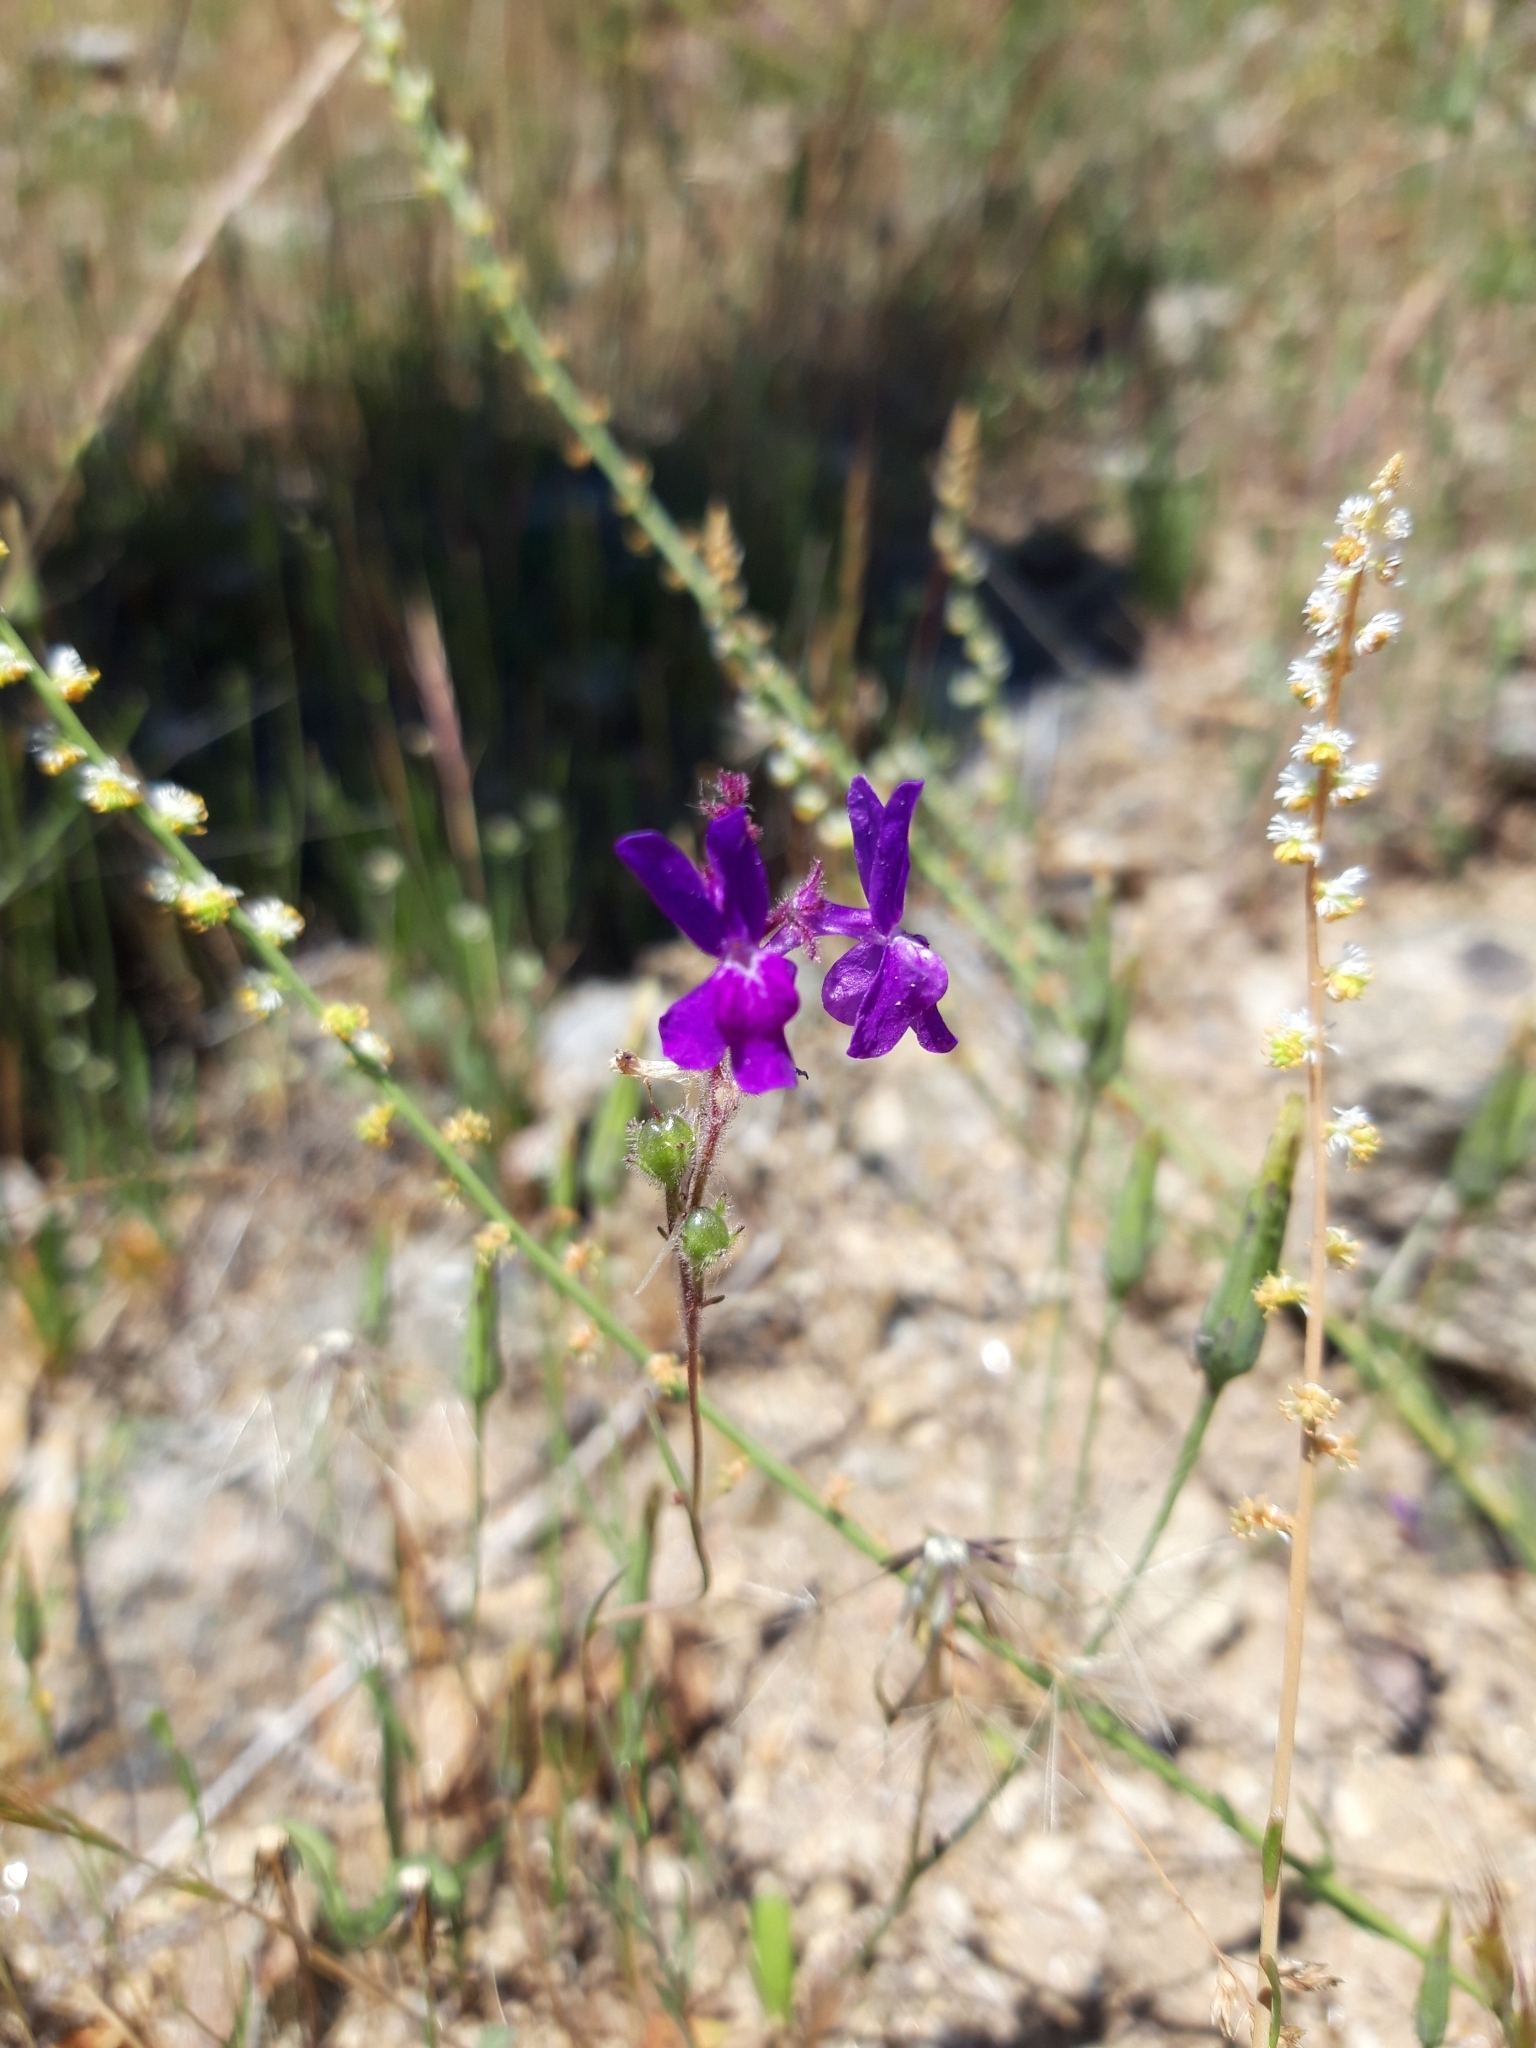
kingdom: Plantae
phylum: Tracheophyta
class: Magnoliopsida
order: Lamiales
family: Plantaginaceae
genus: Linaria
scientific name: Linaria elegans
